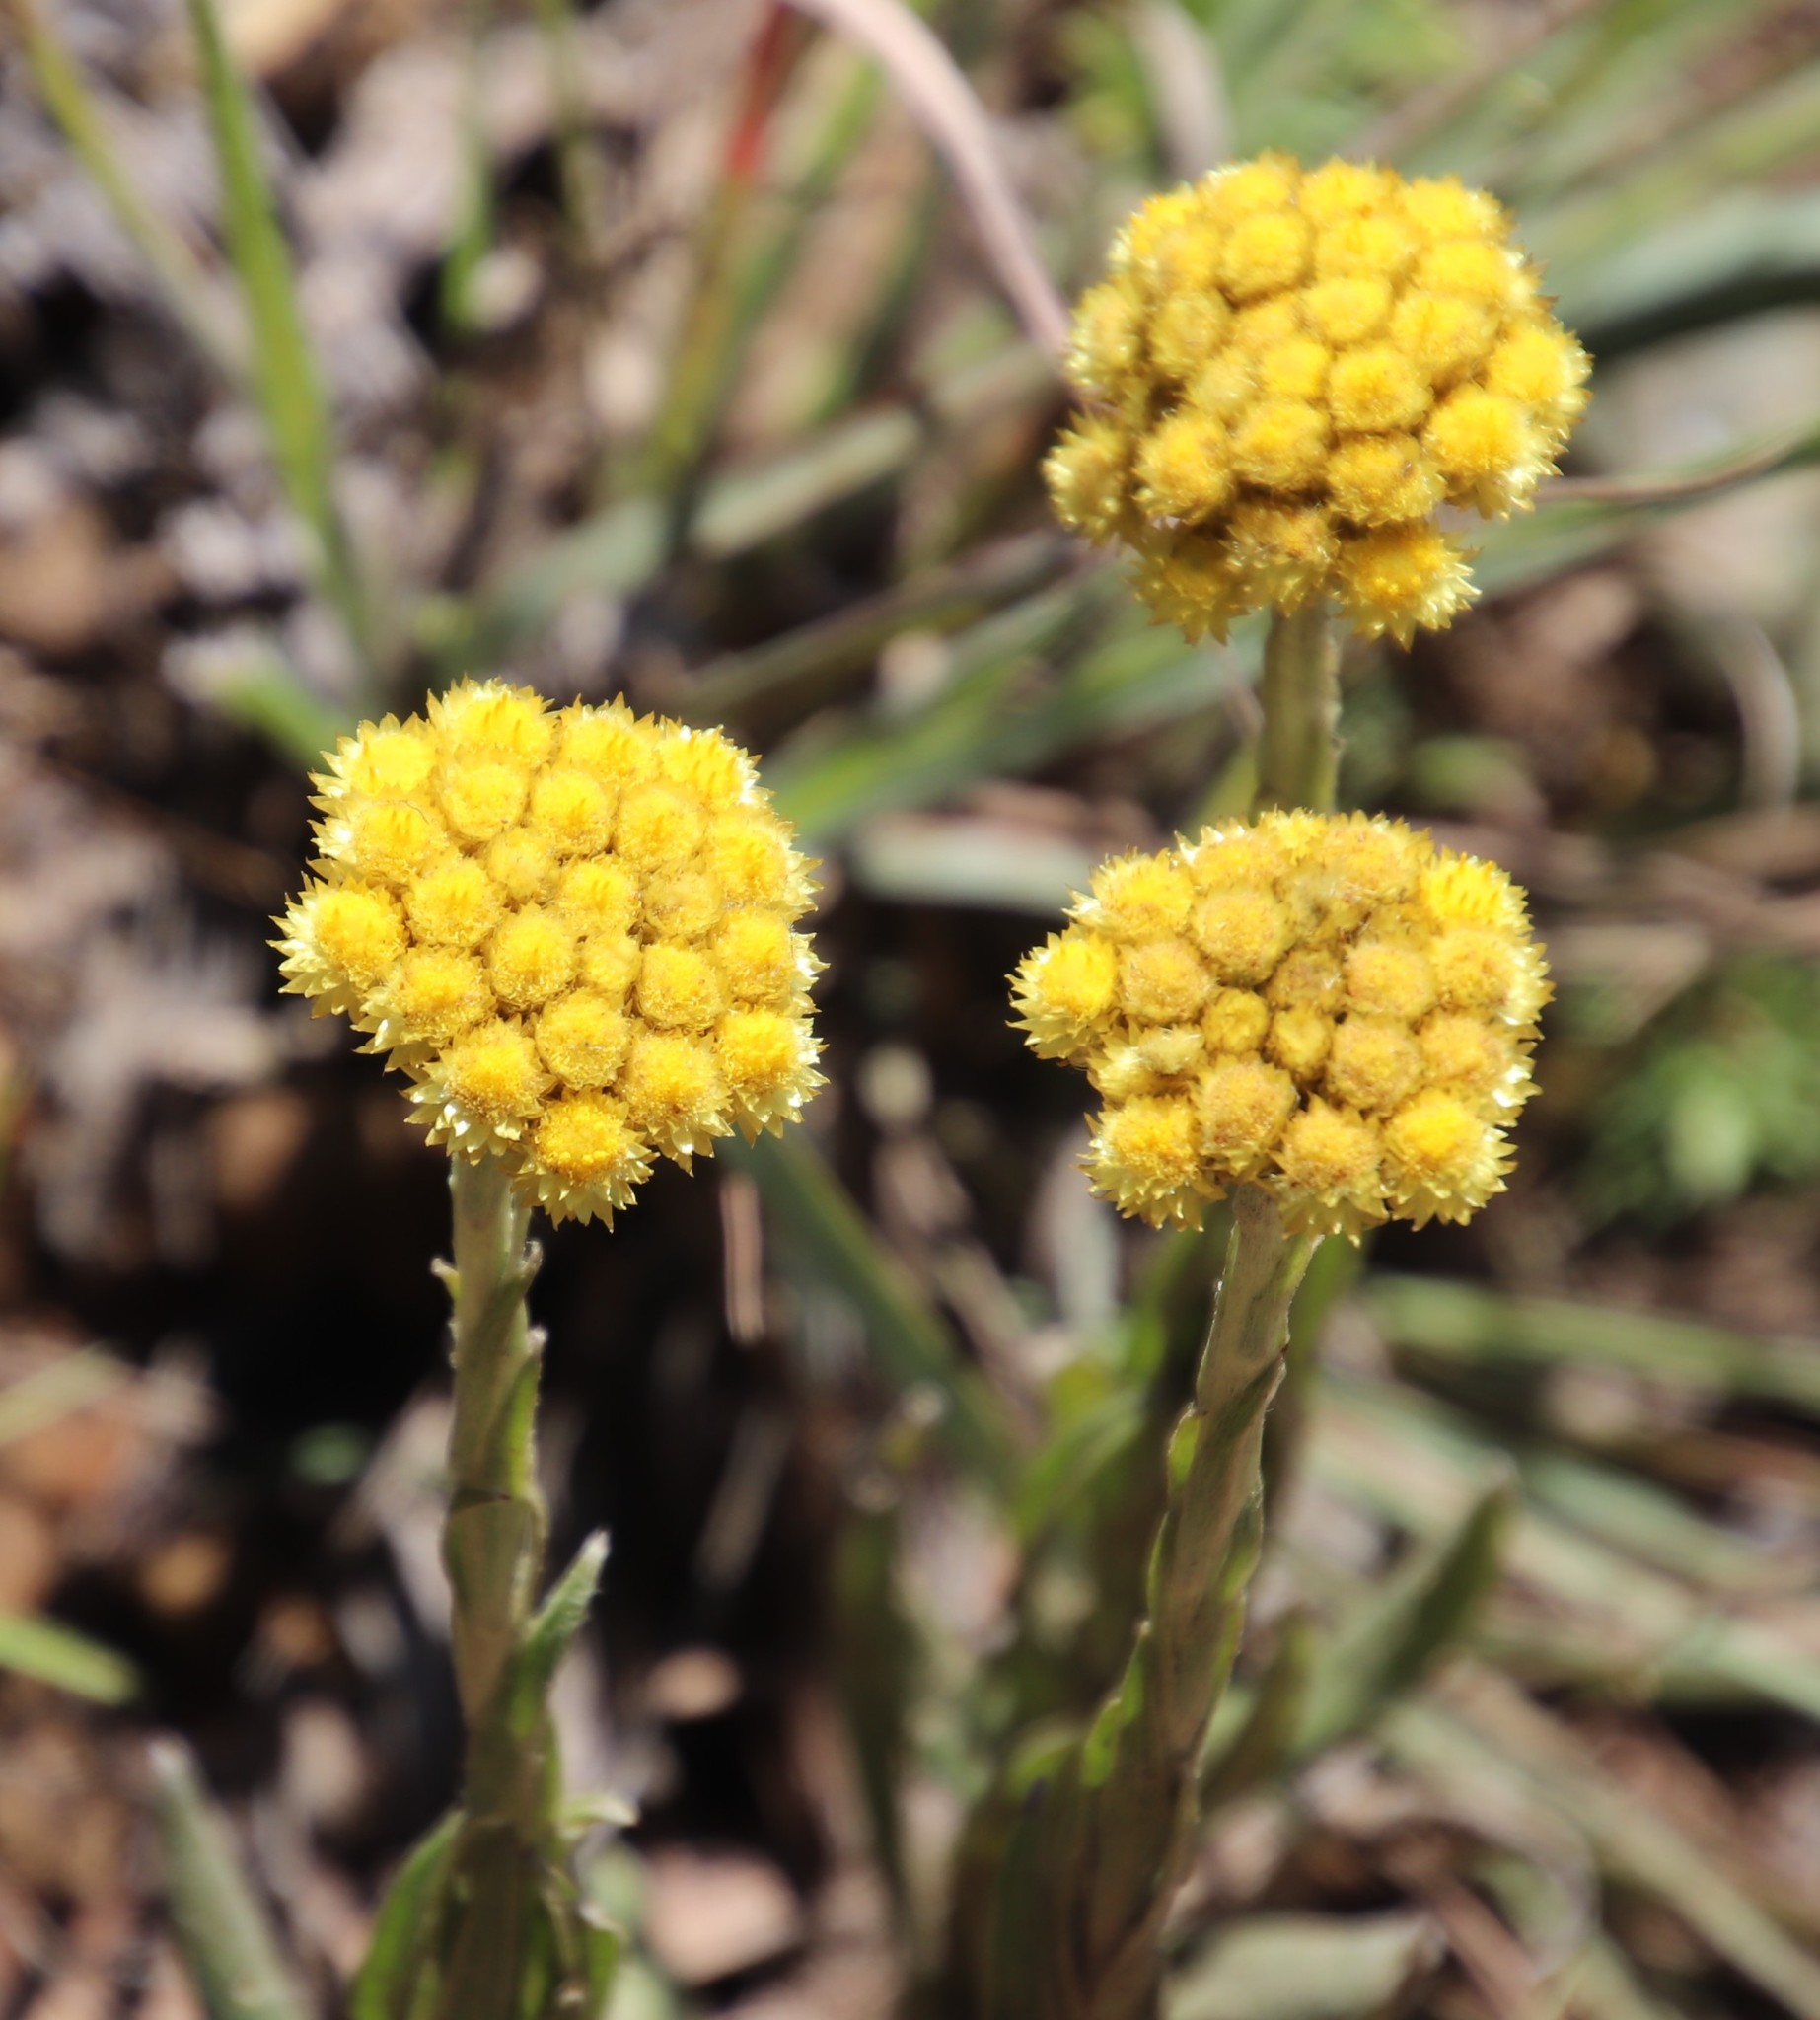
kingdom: Plantae
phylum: Tracheophyta
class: Magnoliopsida
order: Asterales
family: Asteraceae
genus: Helichrysum
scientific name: Helichrysum auriceps
